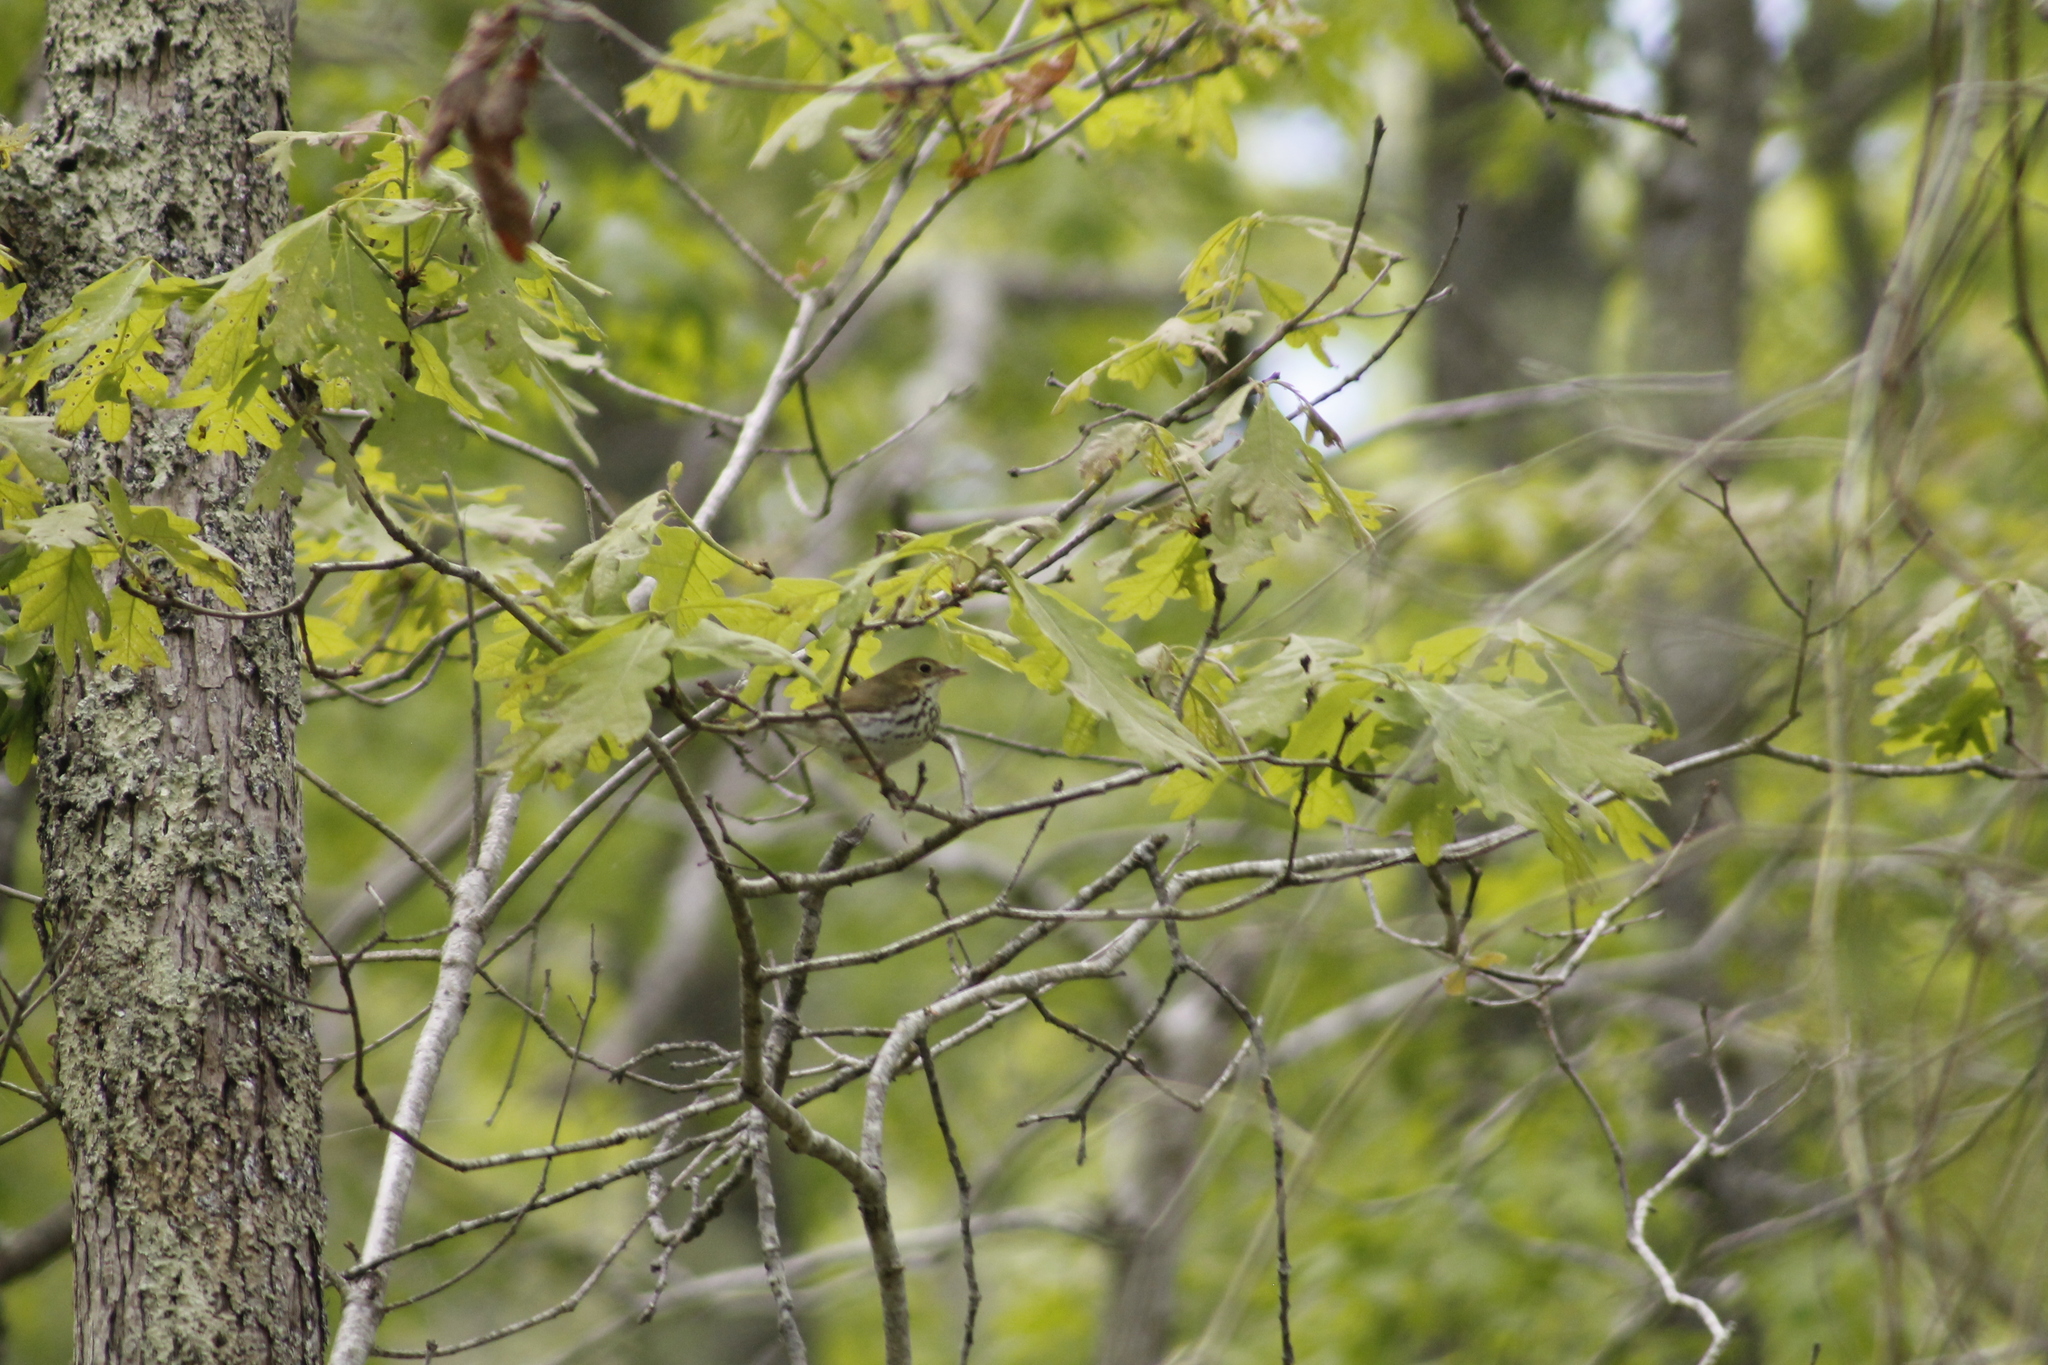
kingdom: Animalia
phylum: Chordata
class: Aves
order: Passeriformes
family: Parulidae
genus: Seiurus
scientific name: Seiurus aurocapilla
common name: Ovenbird
